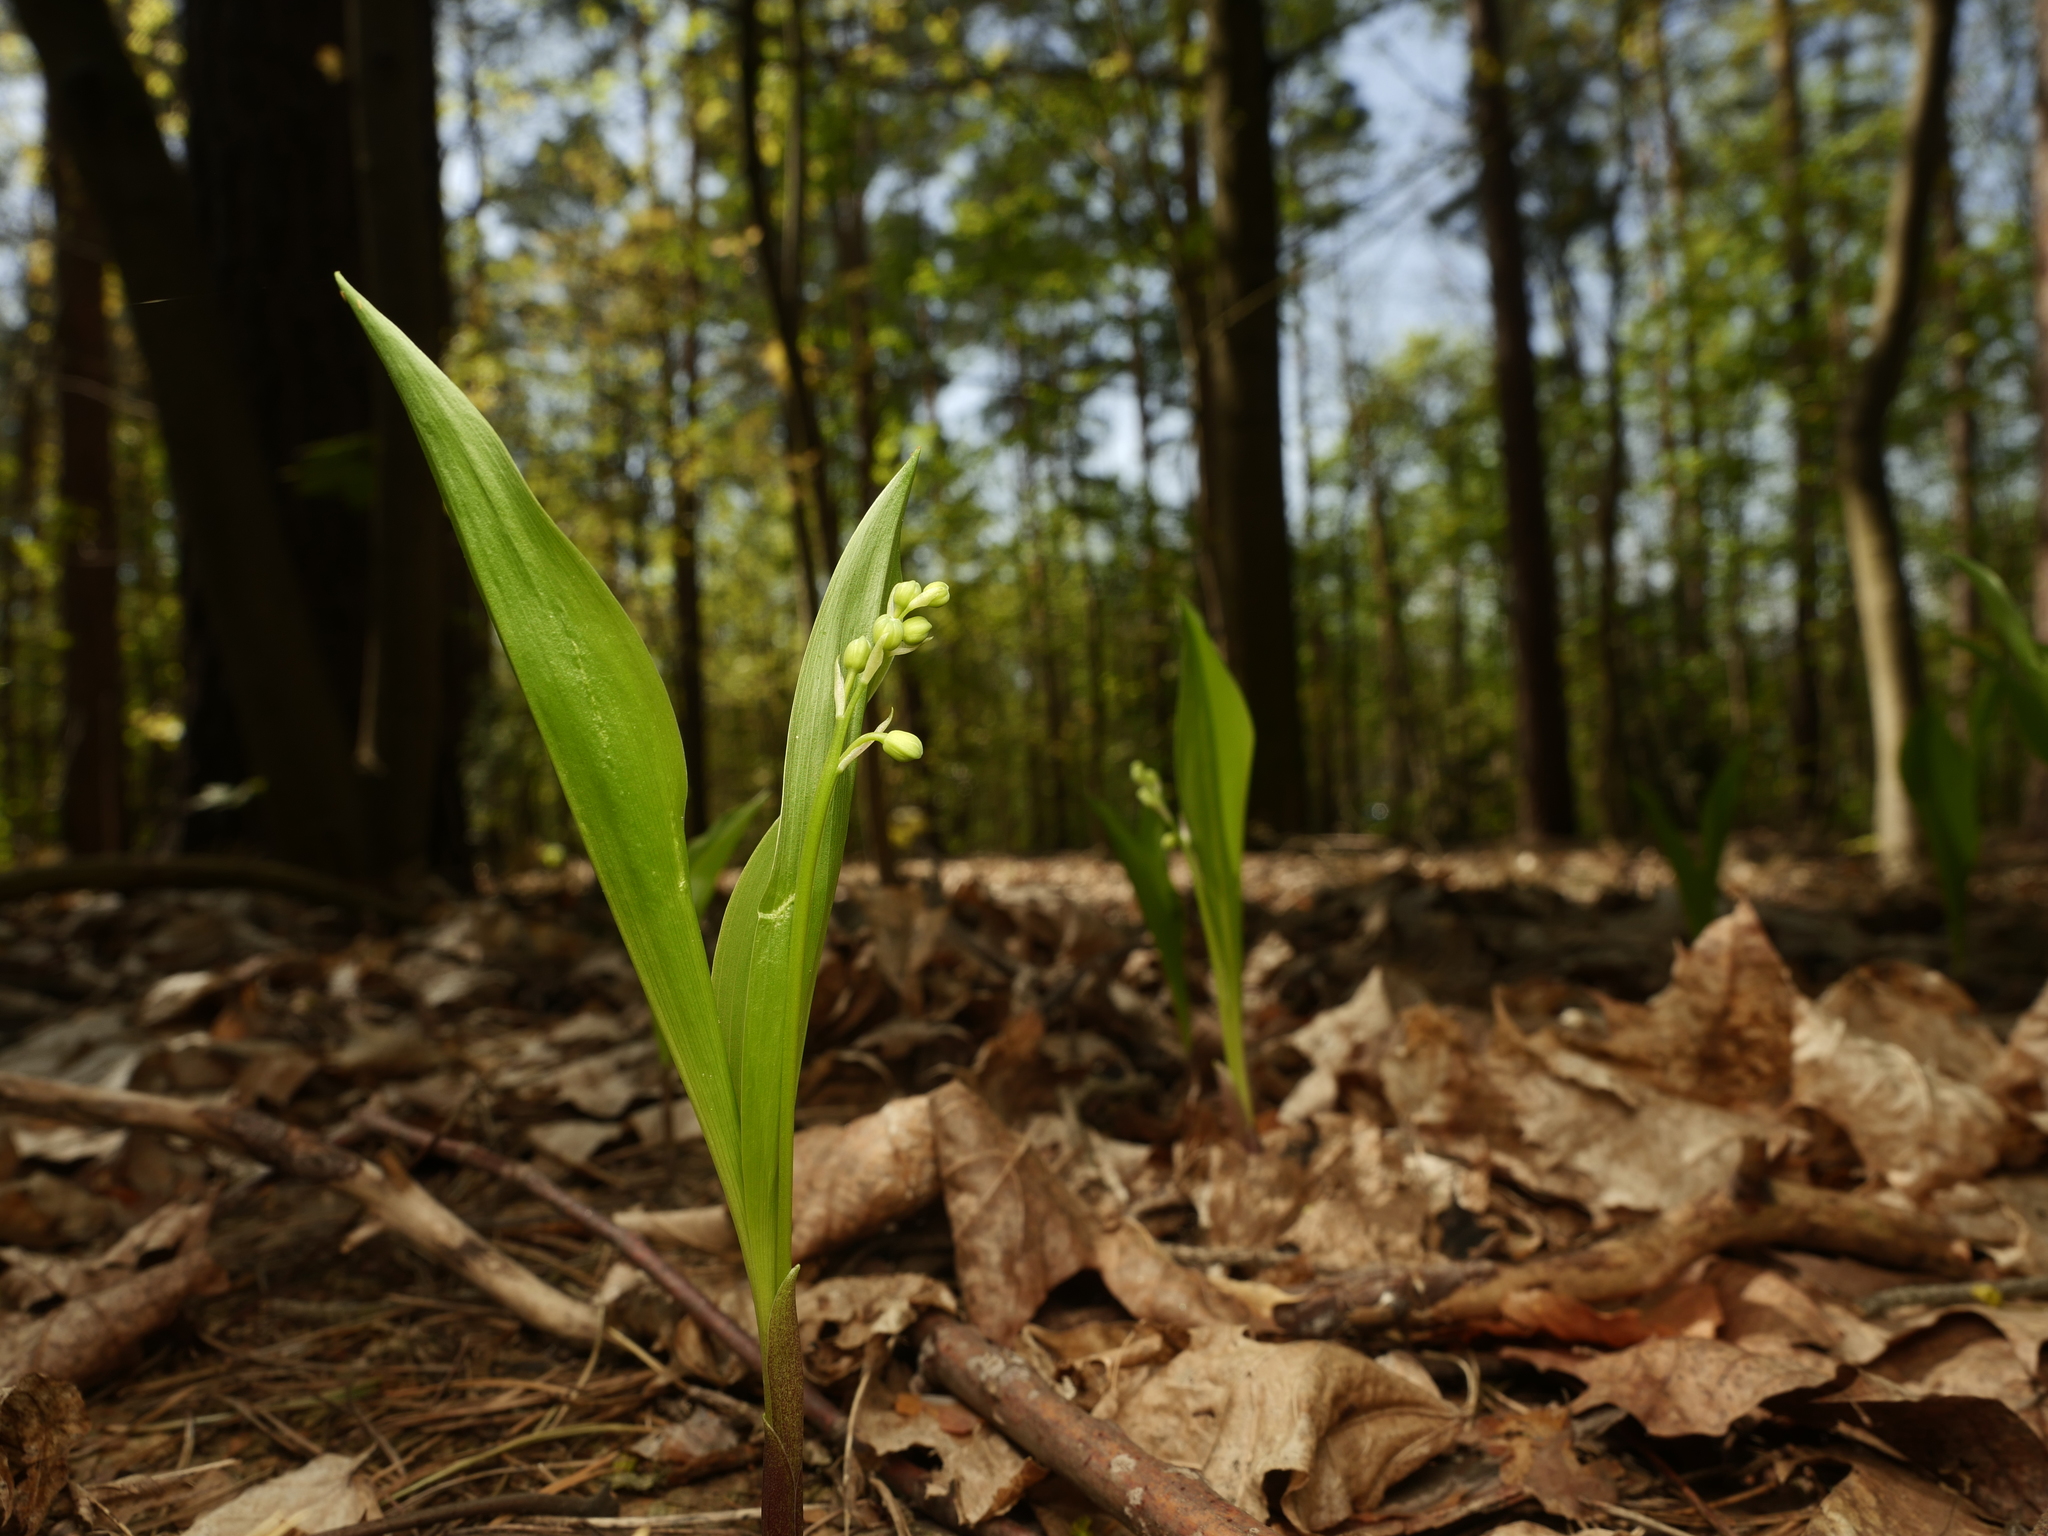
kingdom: Plantae
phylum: Tracheophyta
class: Liliopsida
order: Asparagales
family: Asparagaceae
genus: Convallaria
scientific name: Convallaria majalis
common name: Lily-of-the-valley
